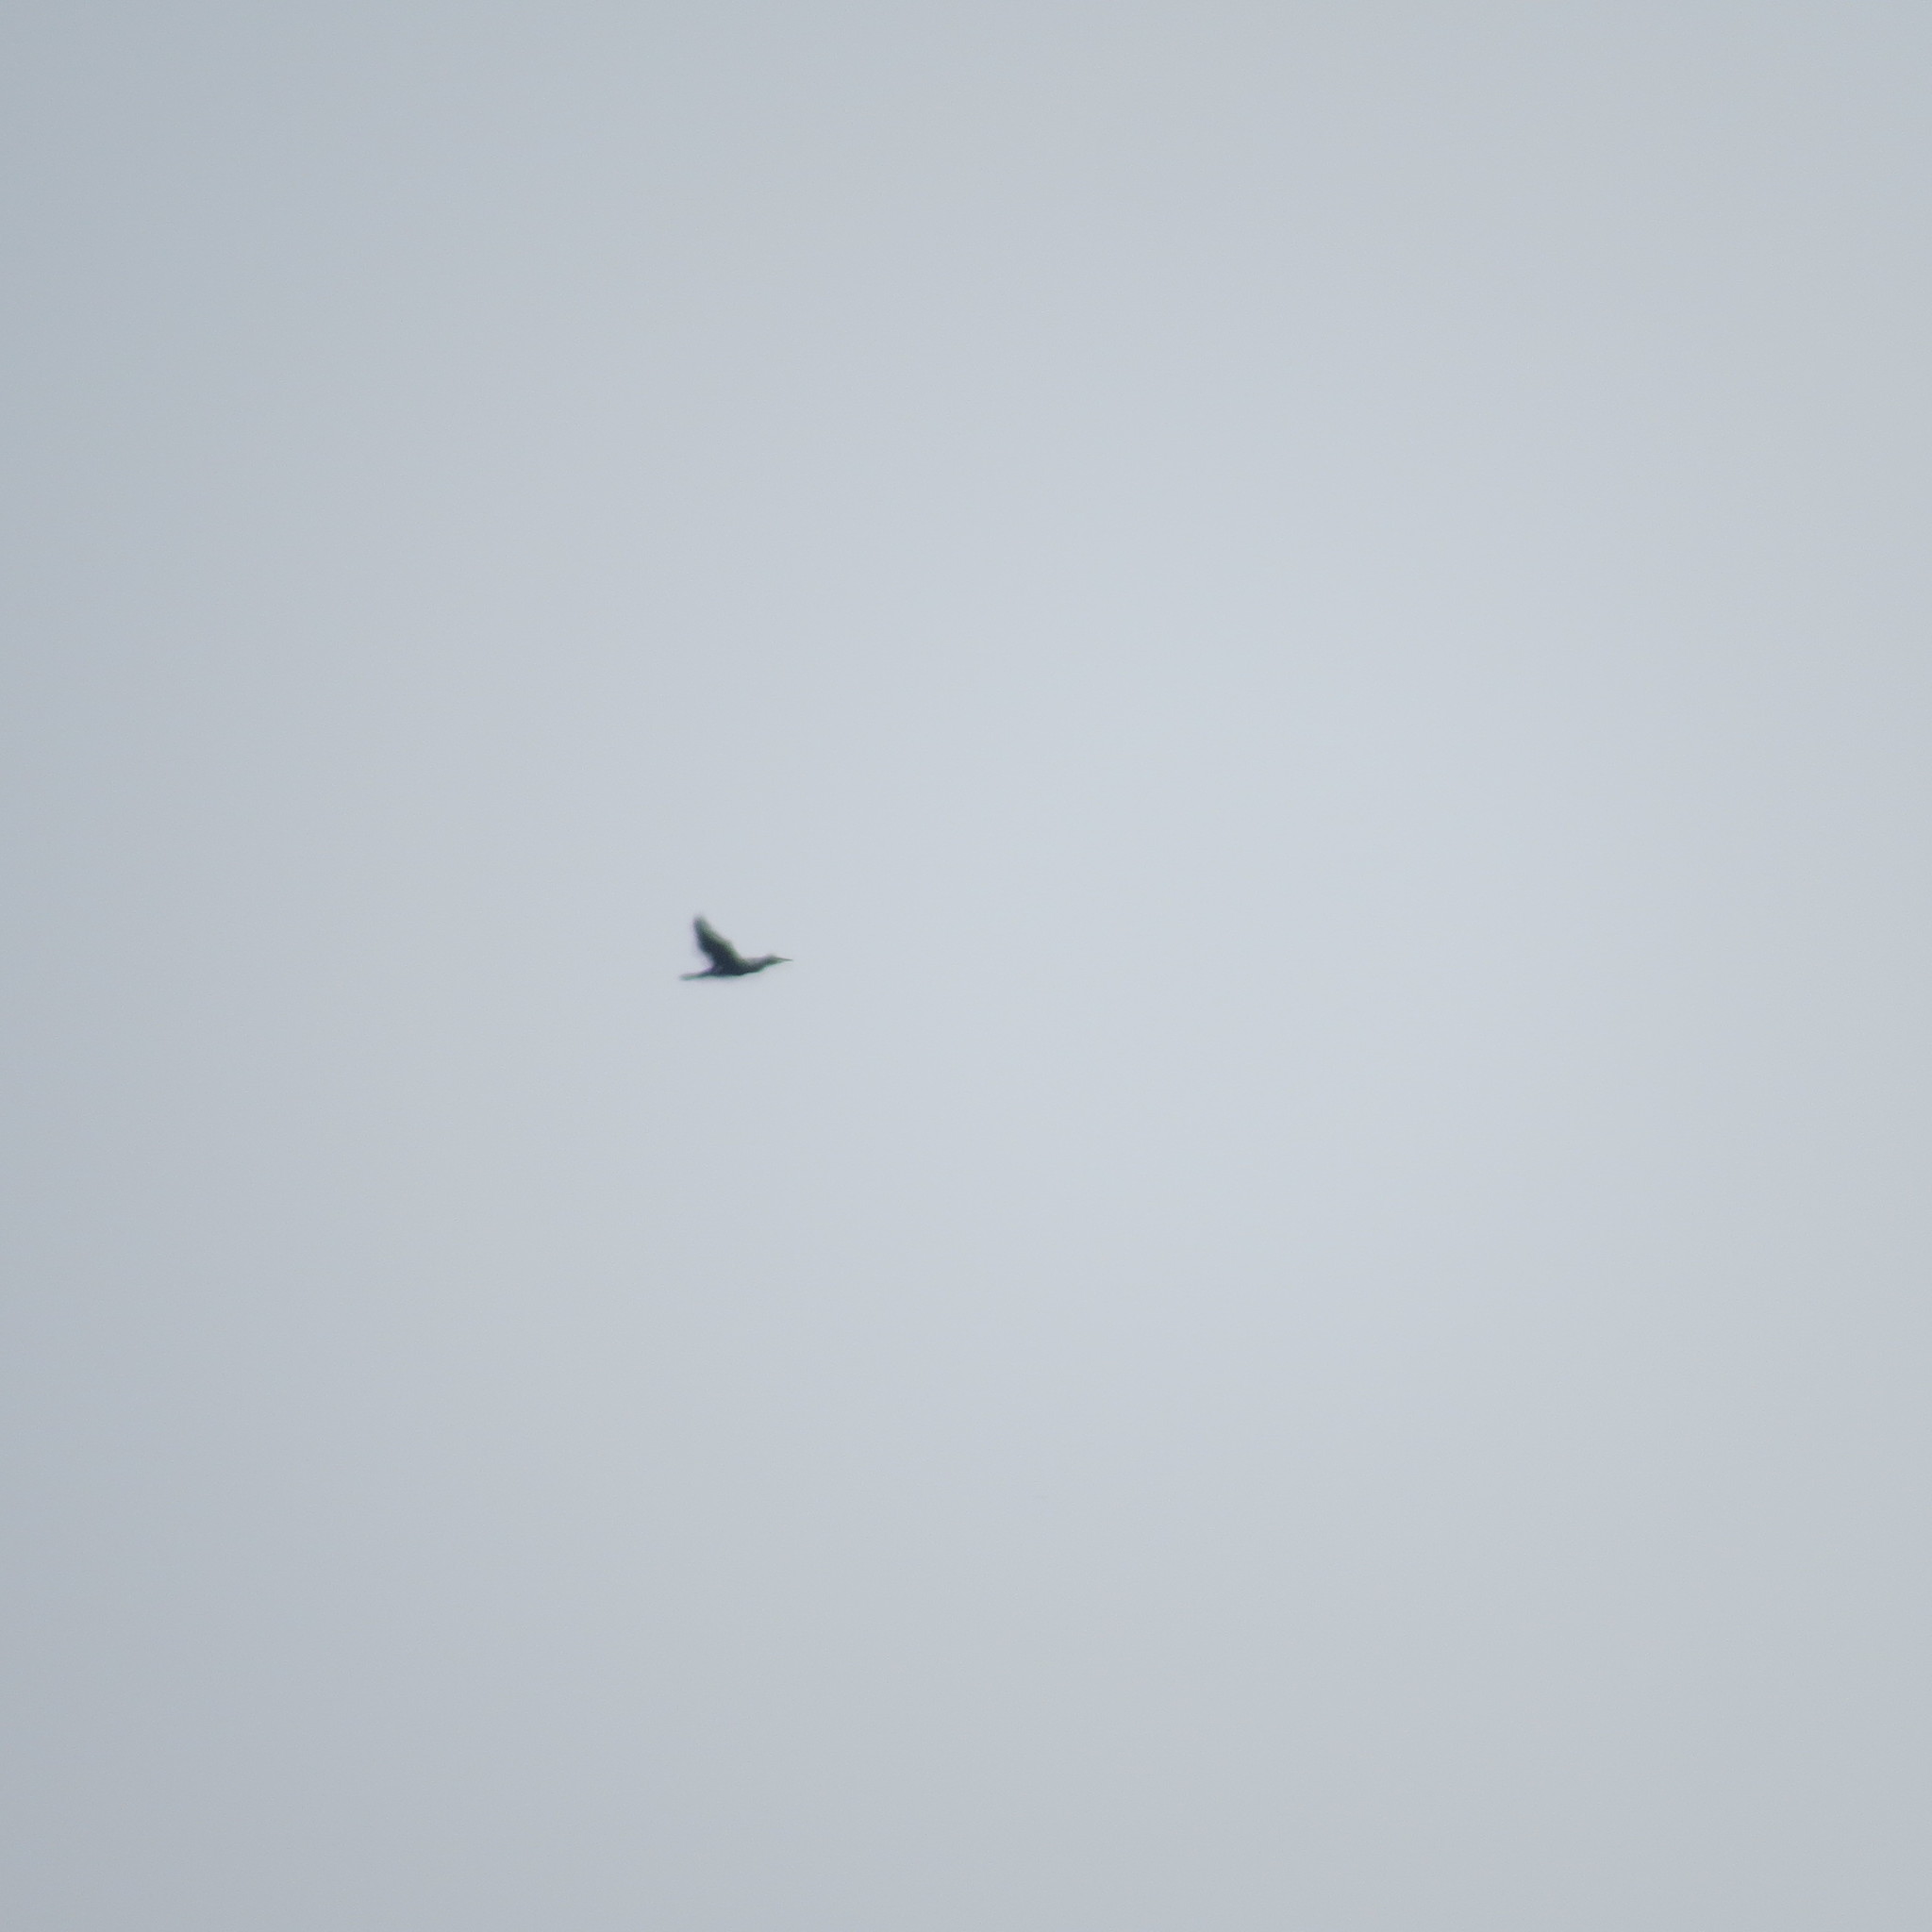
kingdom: Animalia
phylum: Chordata
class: Aves
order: Suliformes
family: Phalacrocoracidae
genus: Phalacrocorax
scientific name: Phalacrocorax carbo
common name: Great cormorant
